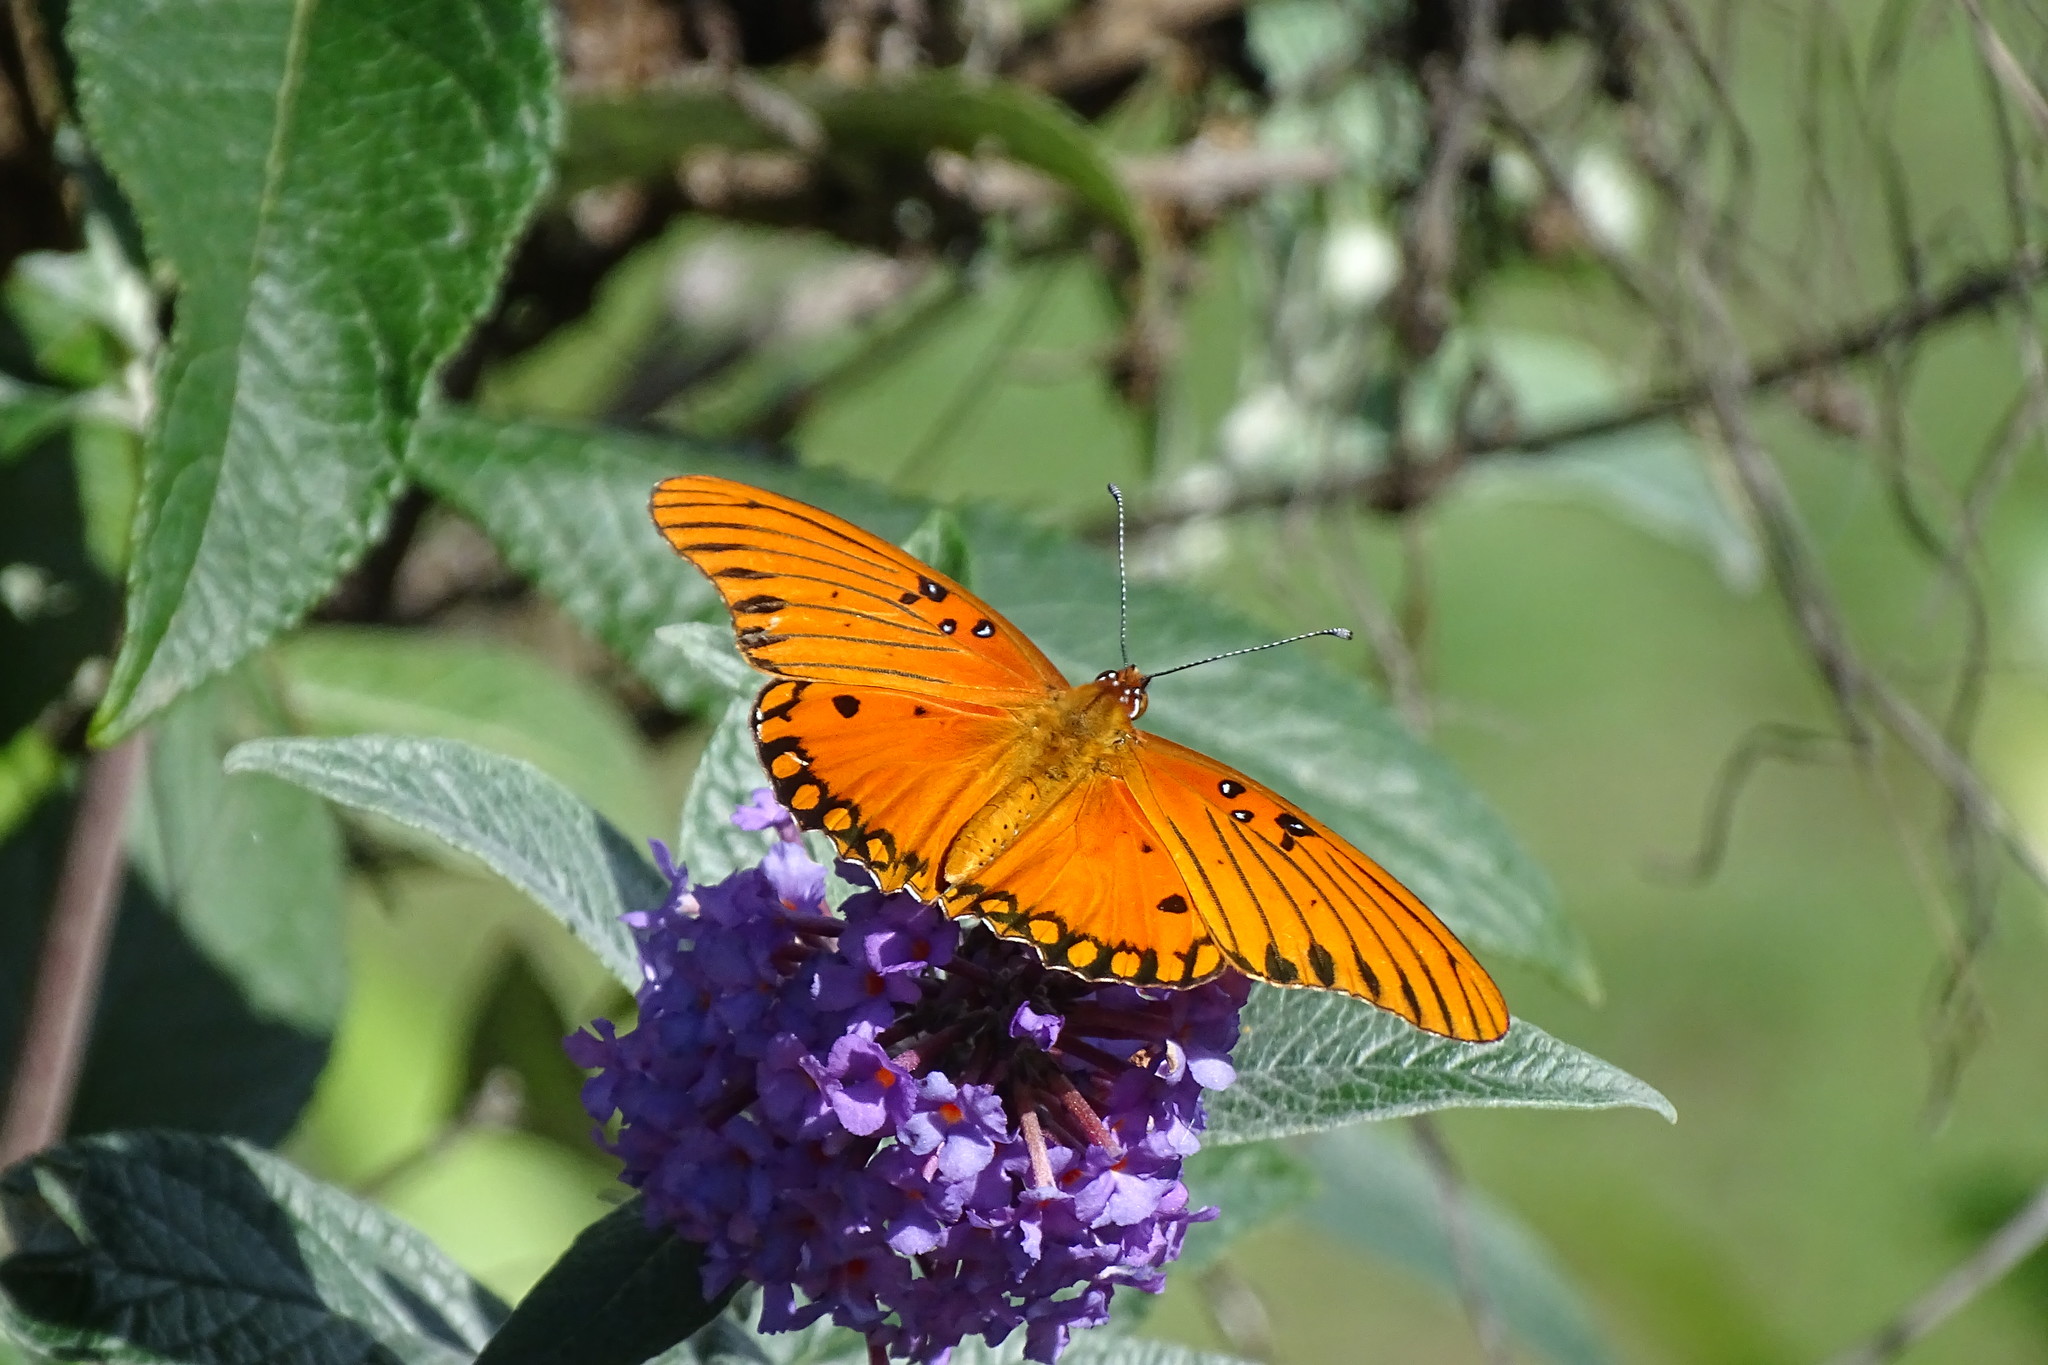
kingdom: Animalia
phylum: Arthropoda
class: Insecta
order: Lepidoptera
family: Nymphalidae
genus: Dione
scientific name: Dione vanillae
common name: Gulf fritillary
